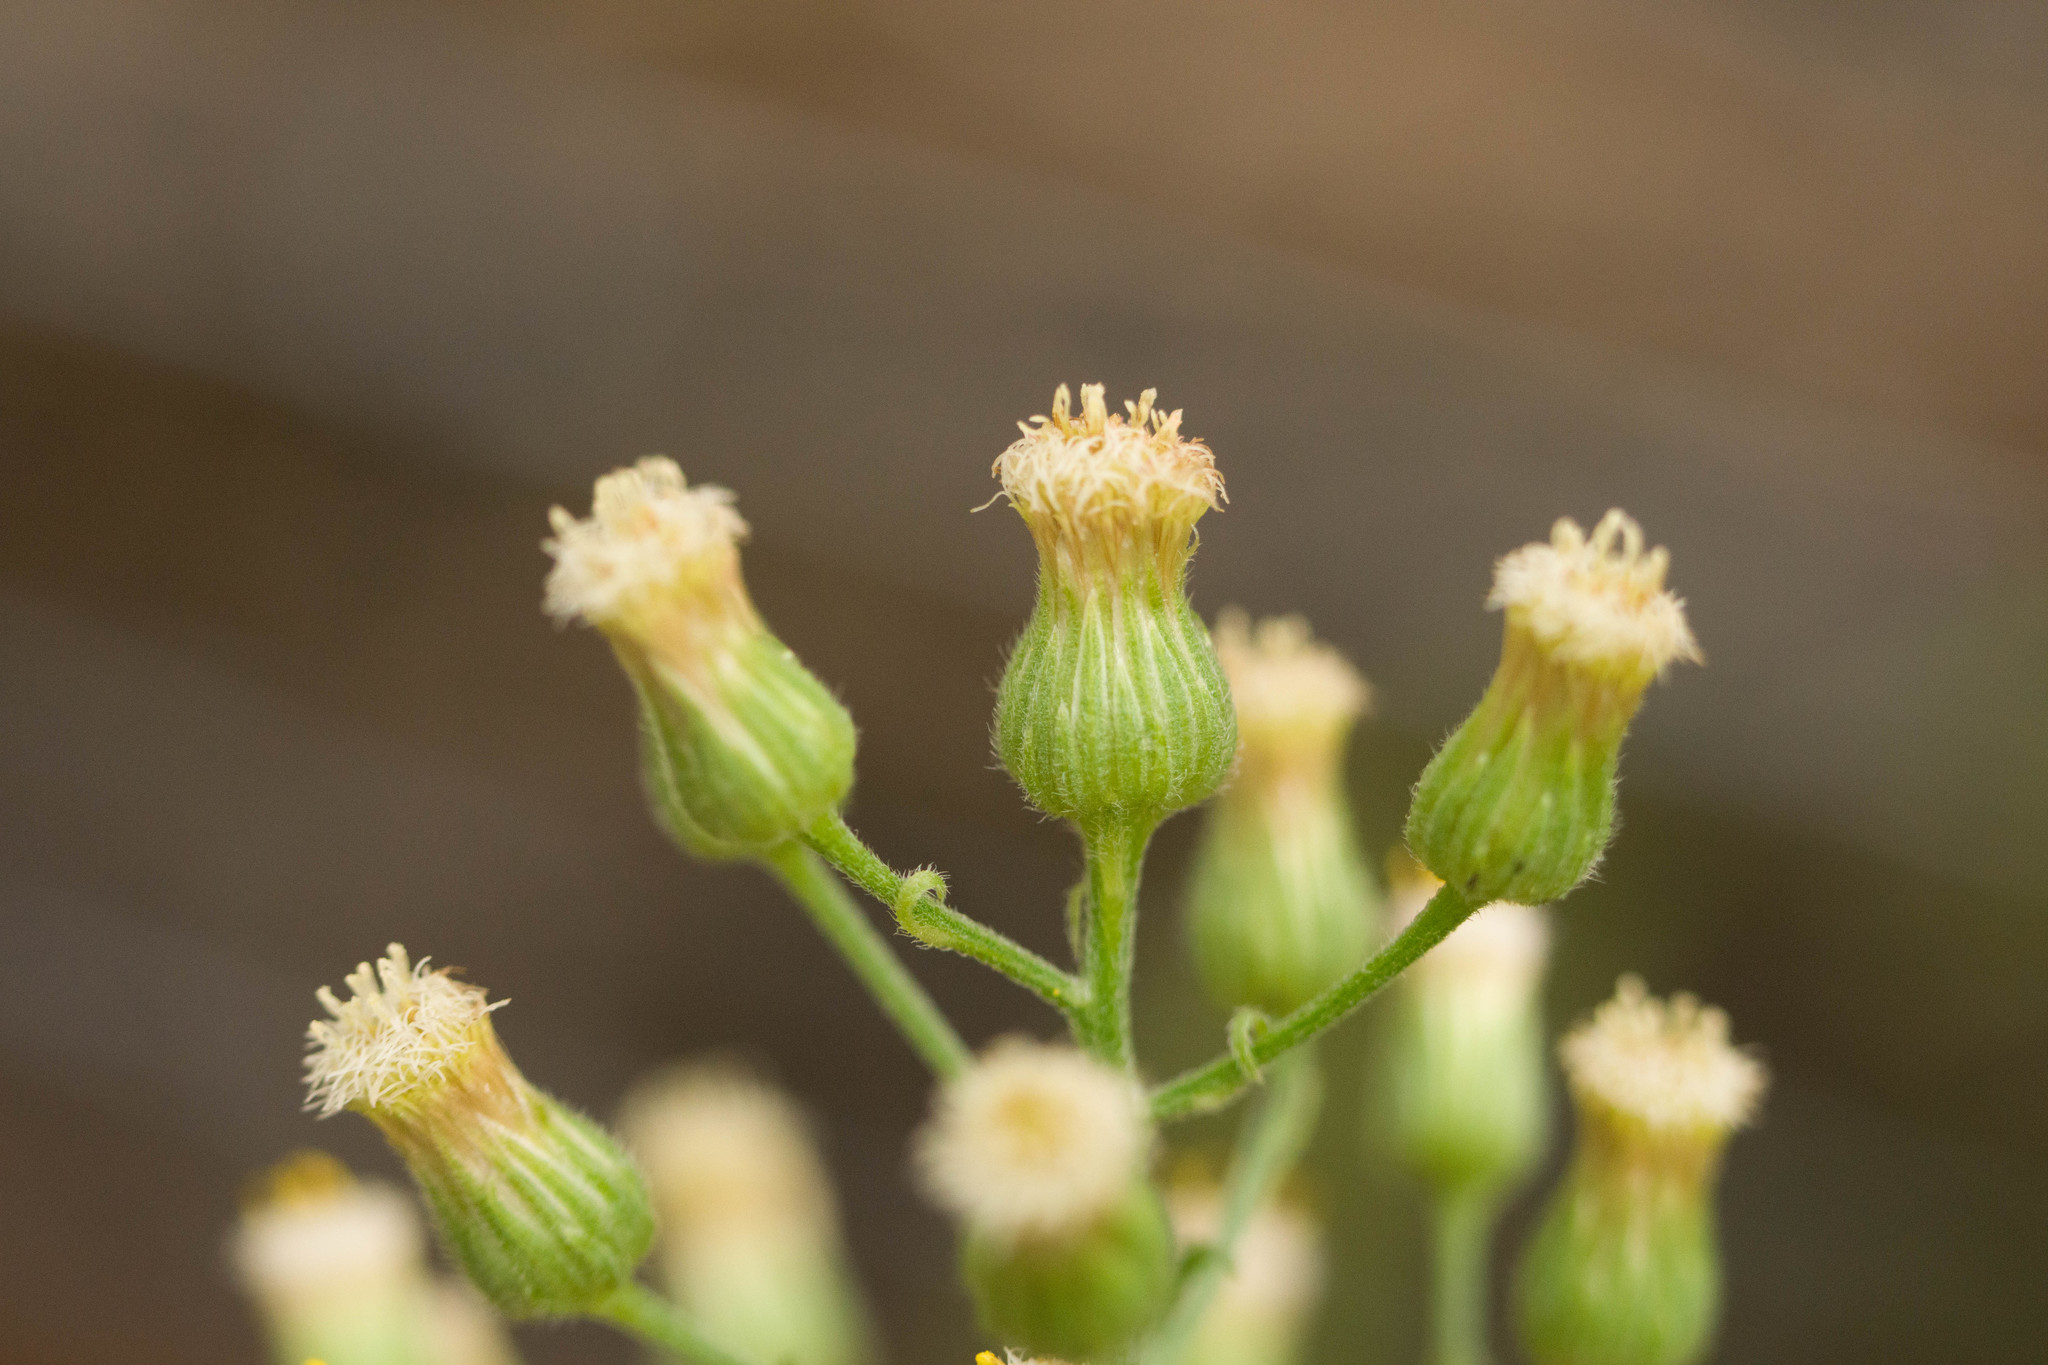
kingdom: Plantae
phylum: Tracheophyta
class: Magnoliopsida
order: Asterales
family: Asteraceae
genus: Erigeron
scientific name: Erigeron sumatrensis
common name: Daisy
